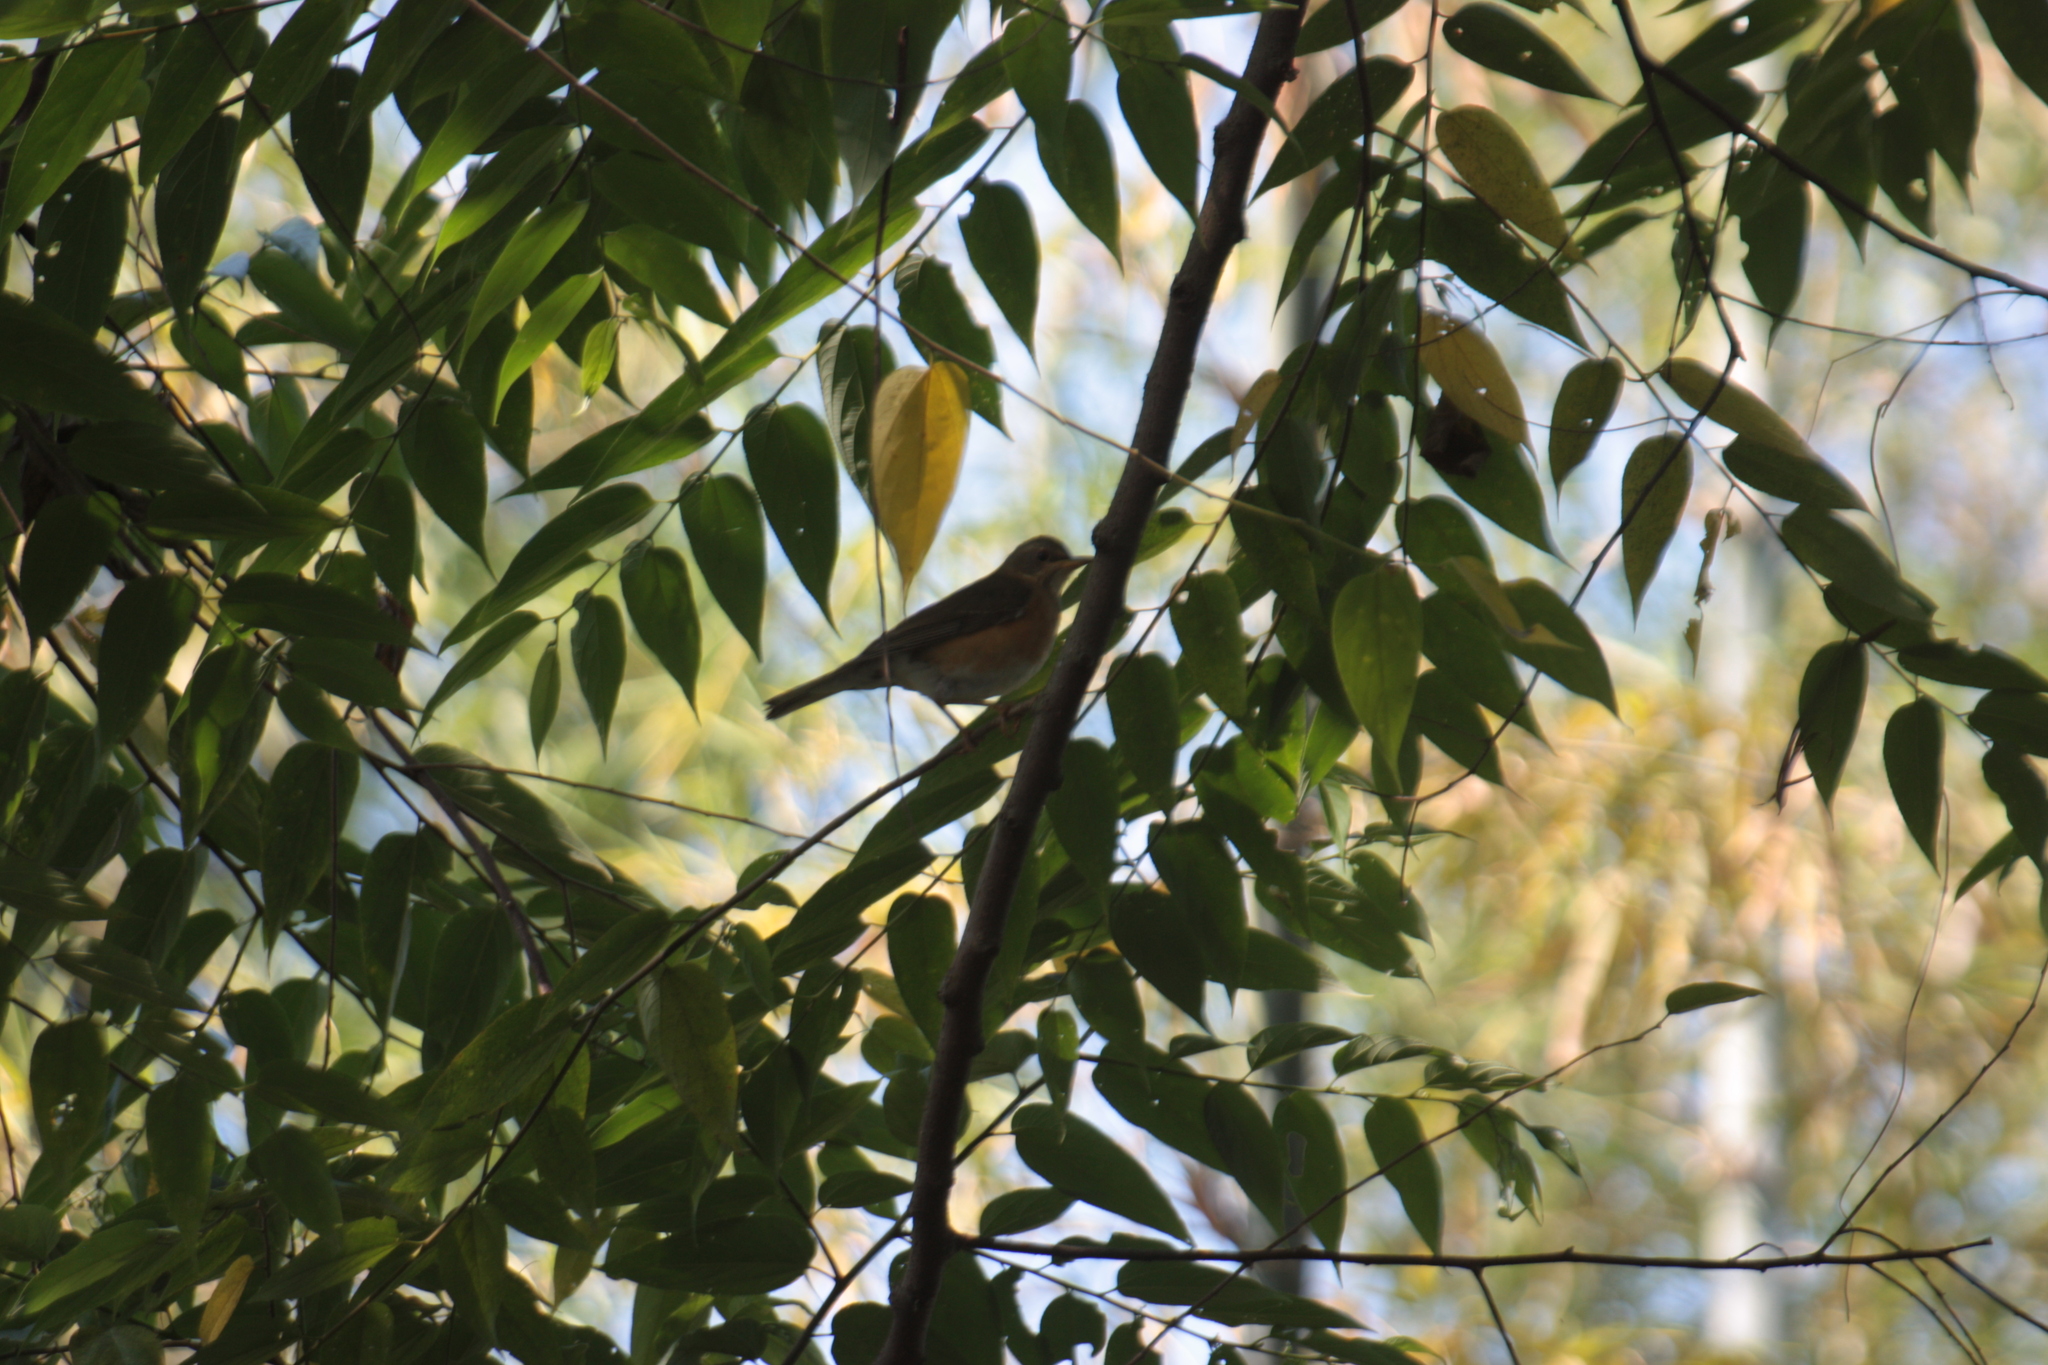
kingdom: Animalia
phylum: Chordata
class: Aves
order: Passeriformes
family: Turdidae
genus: Turdus
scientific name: Turdus chrysolaus
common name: Brown-headed thrush
